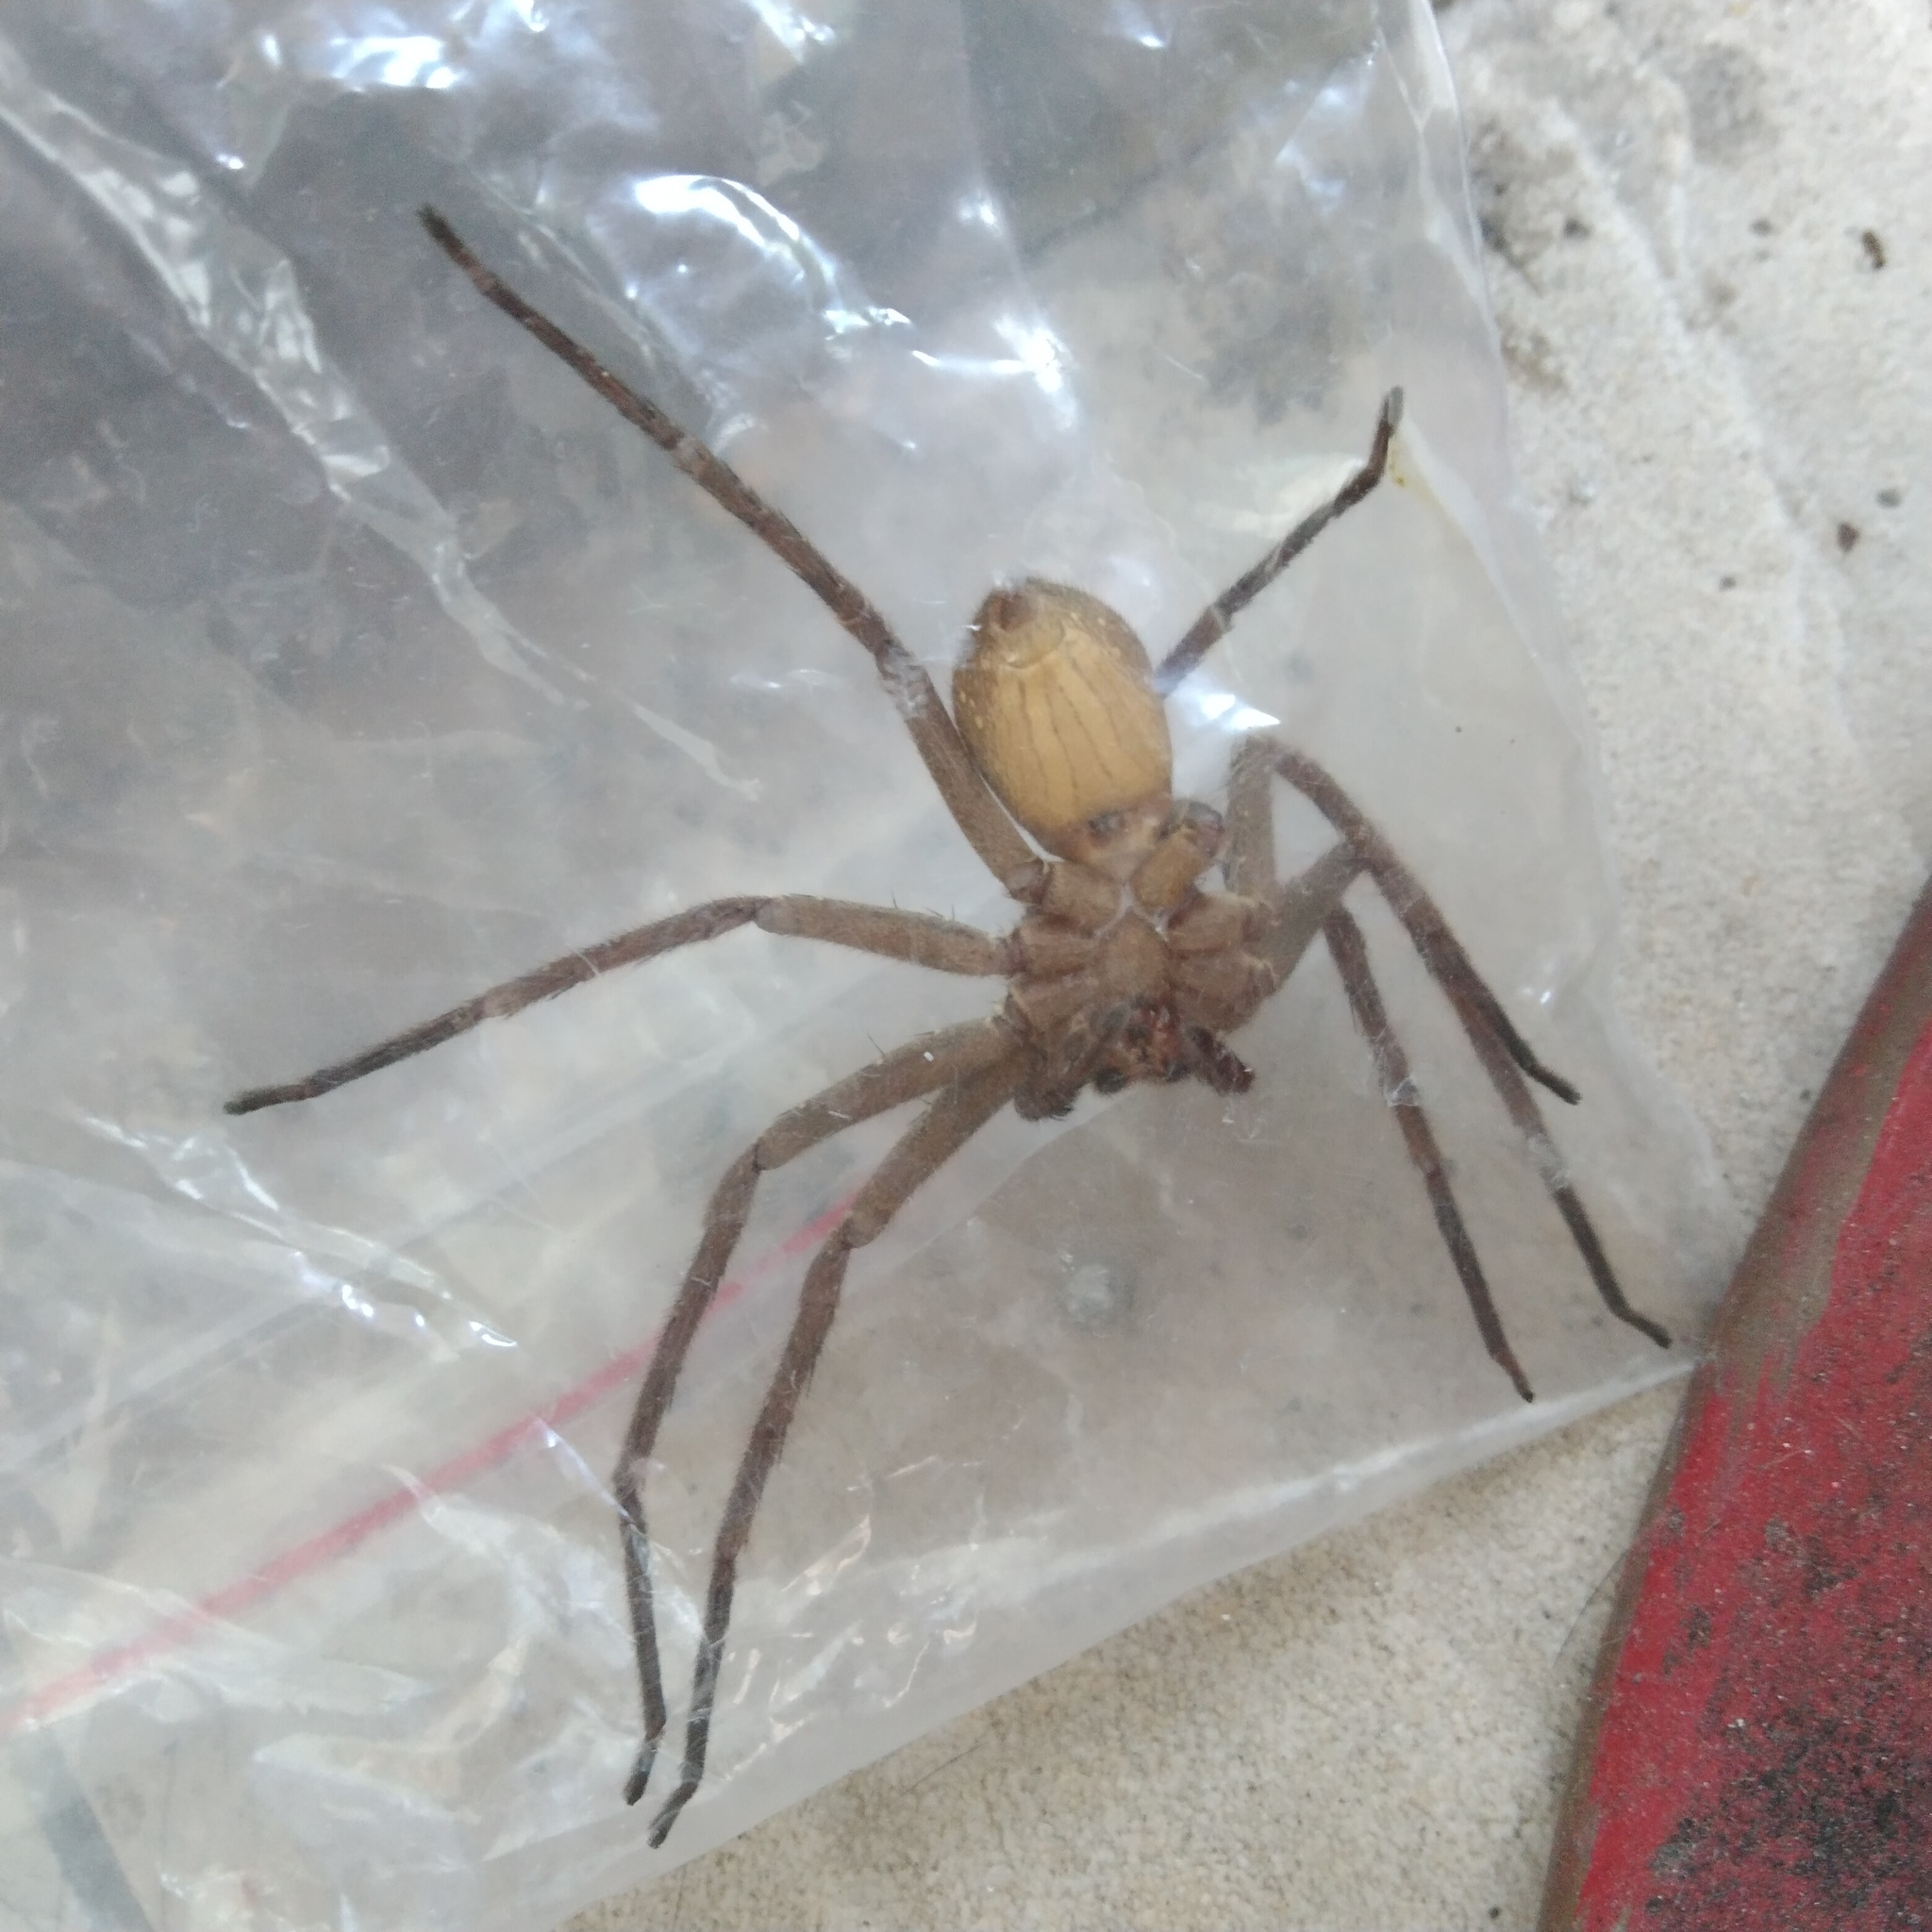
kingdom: Animalia
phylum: Arthropoda
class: Arachnida
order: Araneae
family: Sparassidae
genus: Heteropoda
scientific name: Heteropoda venatoria
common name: Huntsman spider
